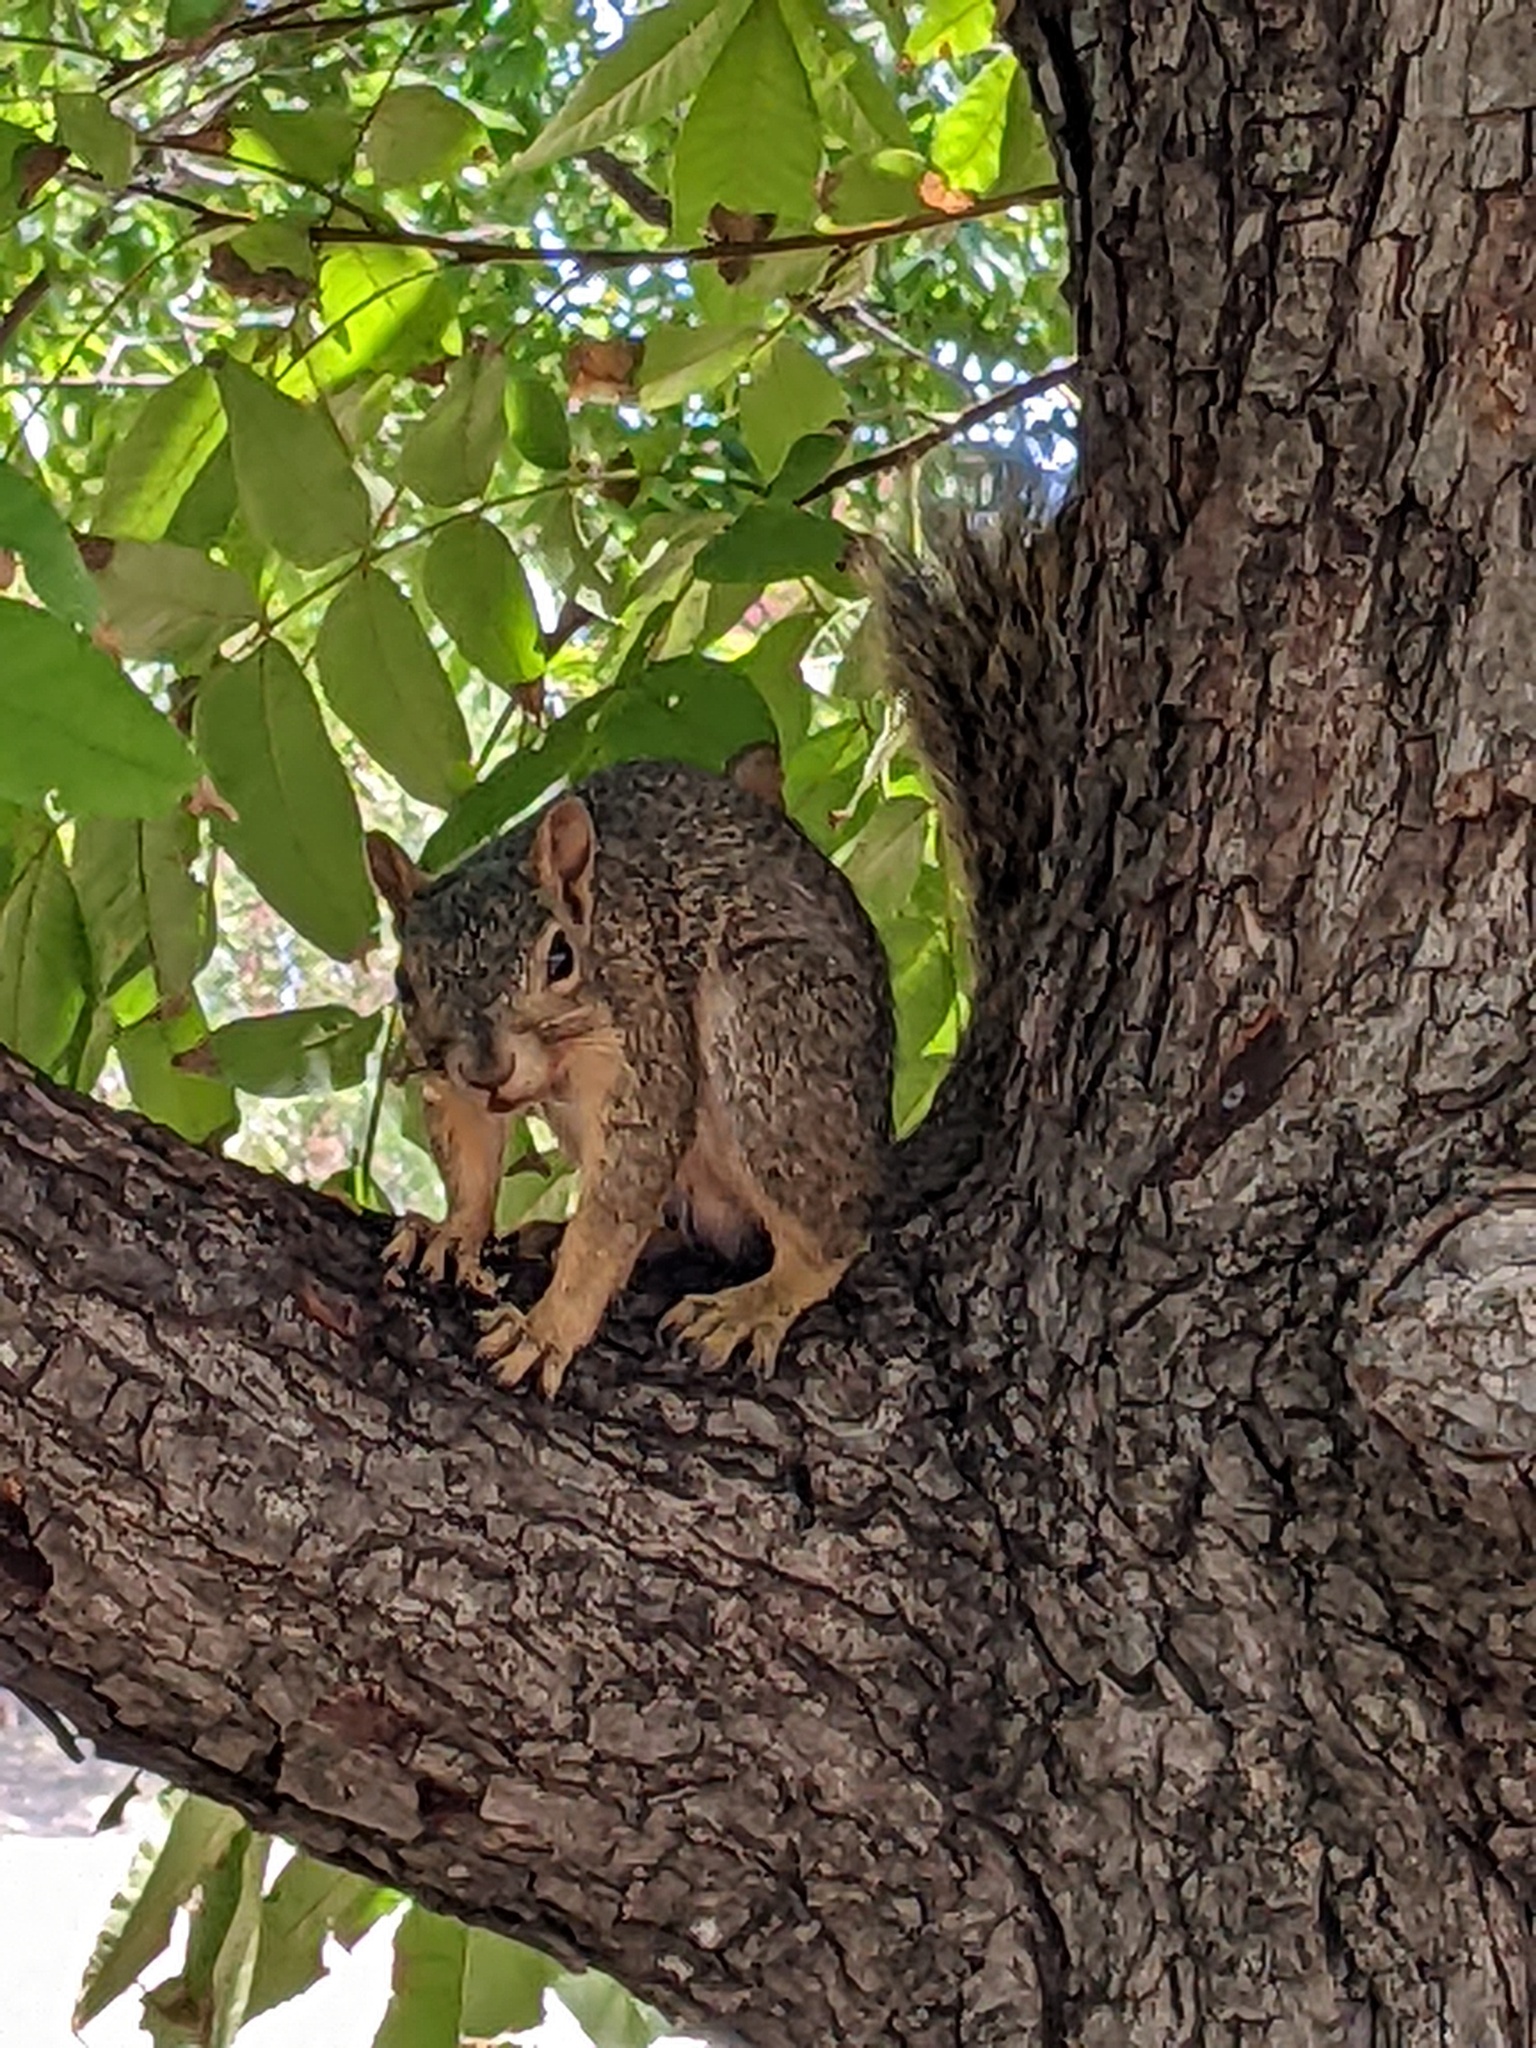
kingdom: Animalia
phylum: Chordata
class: Mammalia
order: Rodentia
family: Sciuridae
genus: Sciurus
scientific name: Sciurus niger
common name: Fox squirrel
